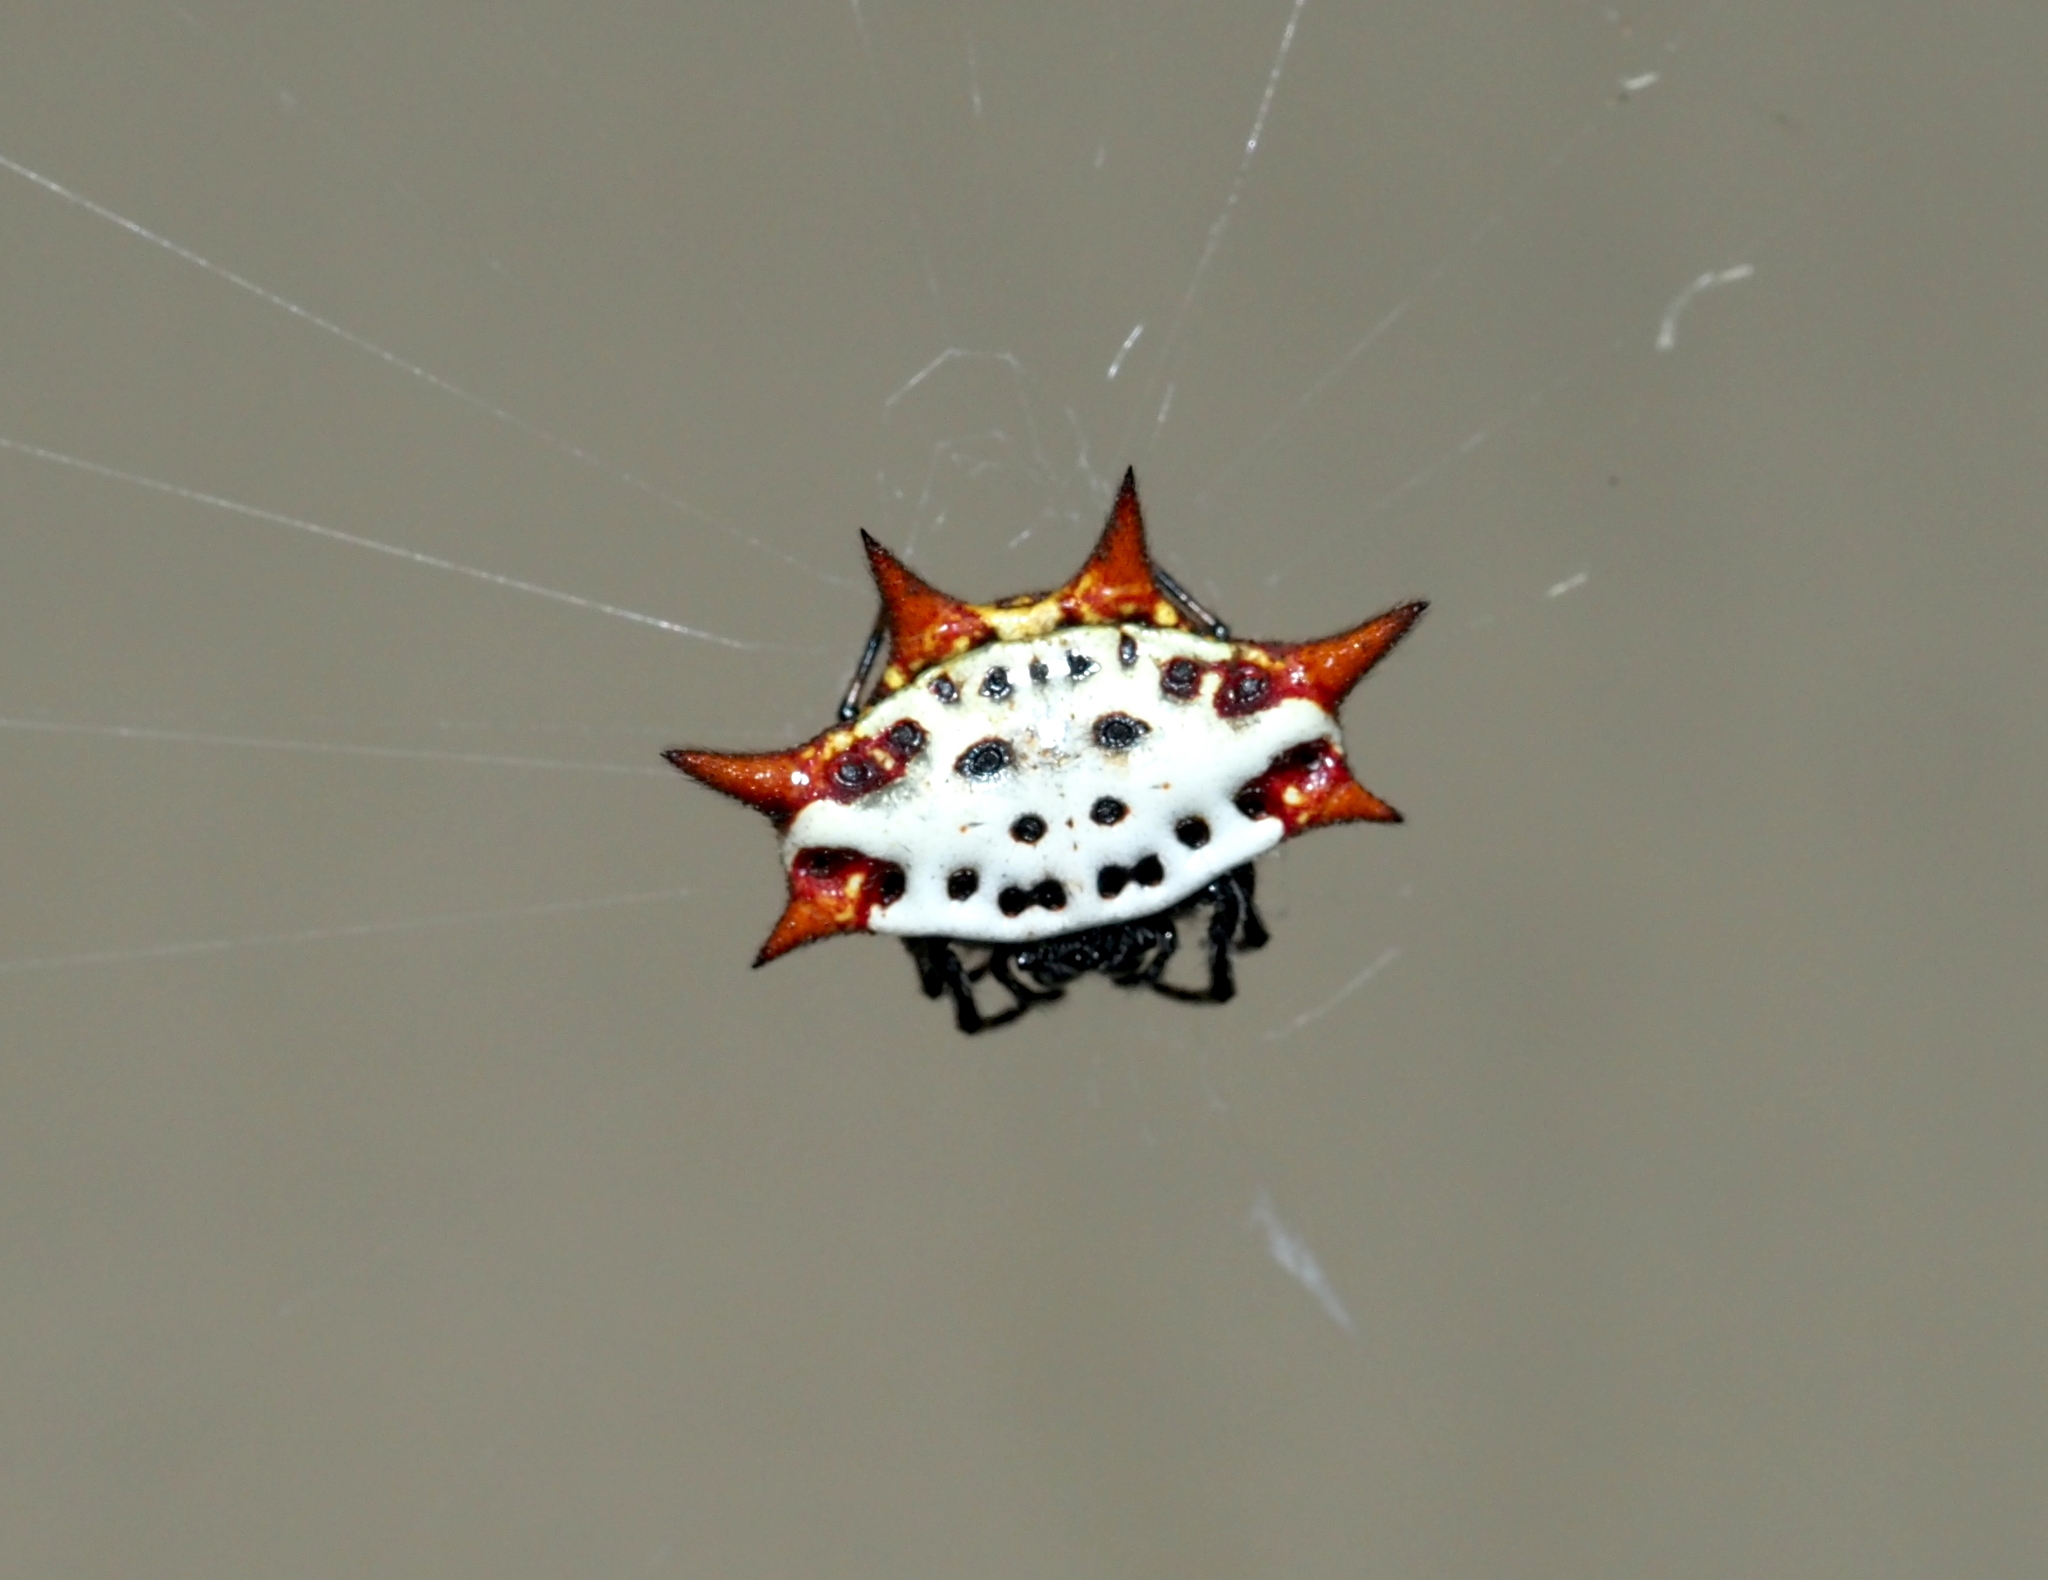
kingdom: Animalia
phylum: Arthropoda
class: Arachnida
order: Araneae
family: Araneidae
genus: Gasteracantha
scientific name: Gasteracantha cancriformis
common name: Orb weavers
